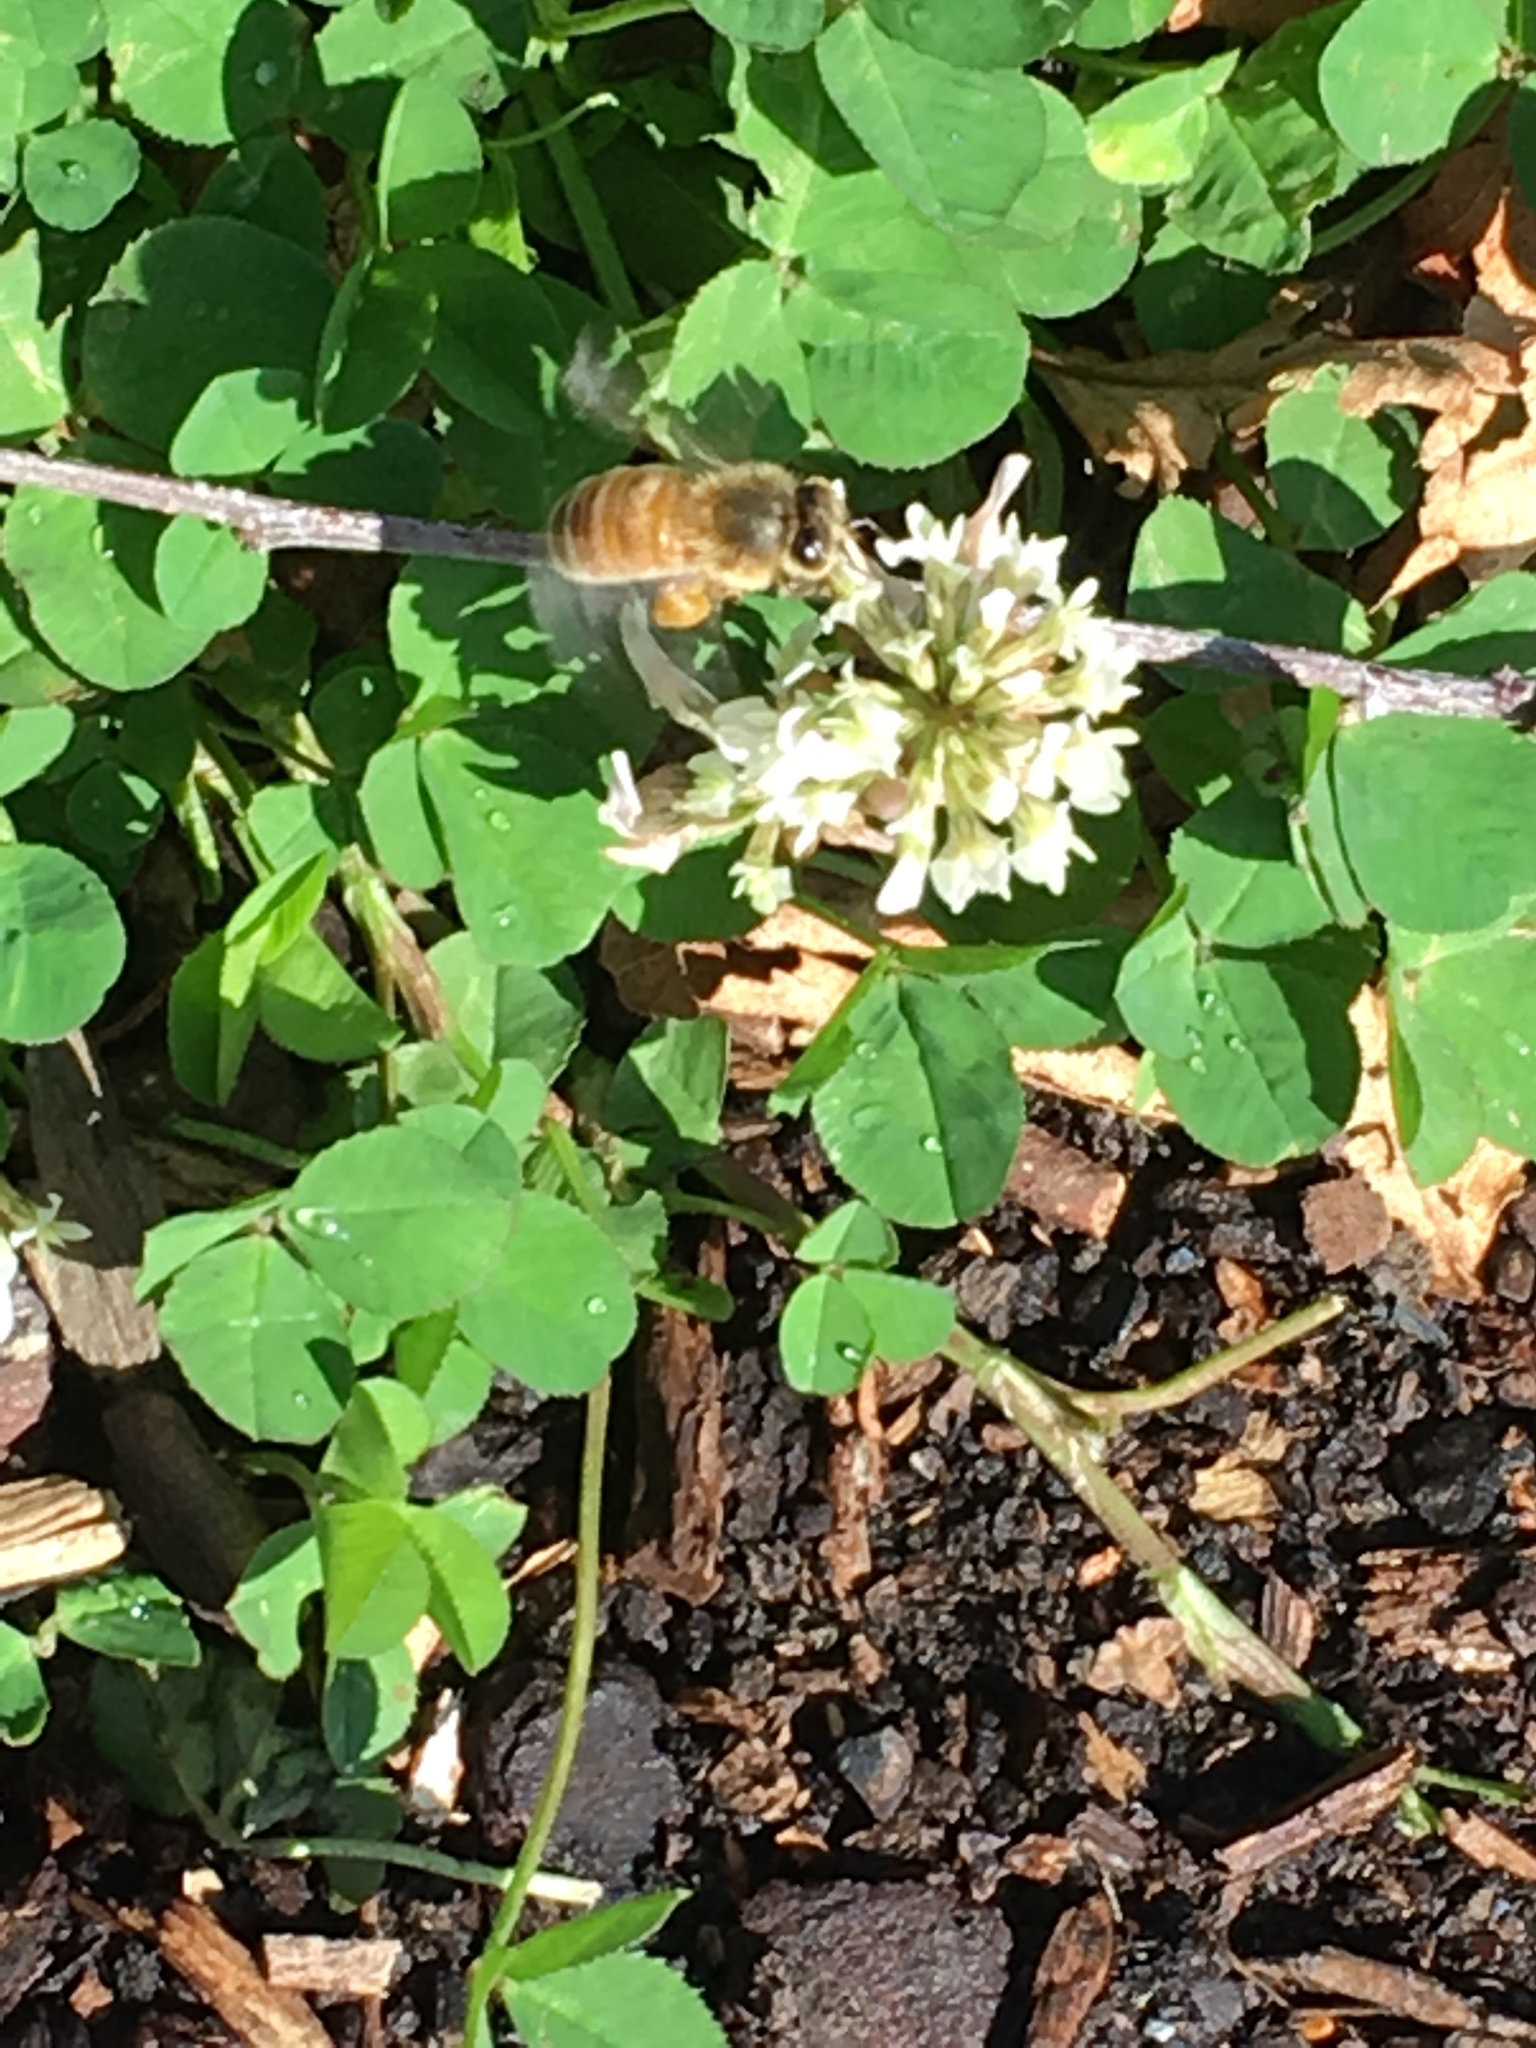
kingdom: Animalia
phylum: Arthropoda
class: Insecta
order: Hymenoptera
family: Apidae
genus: Apis
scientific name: Apis mellifera
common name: Honey bee
